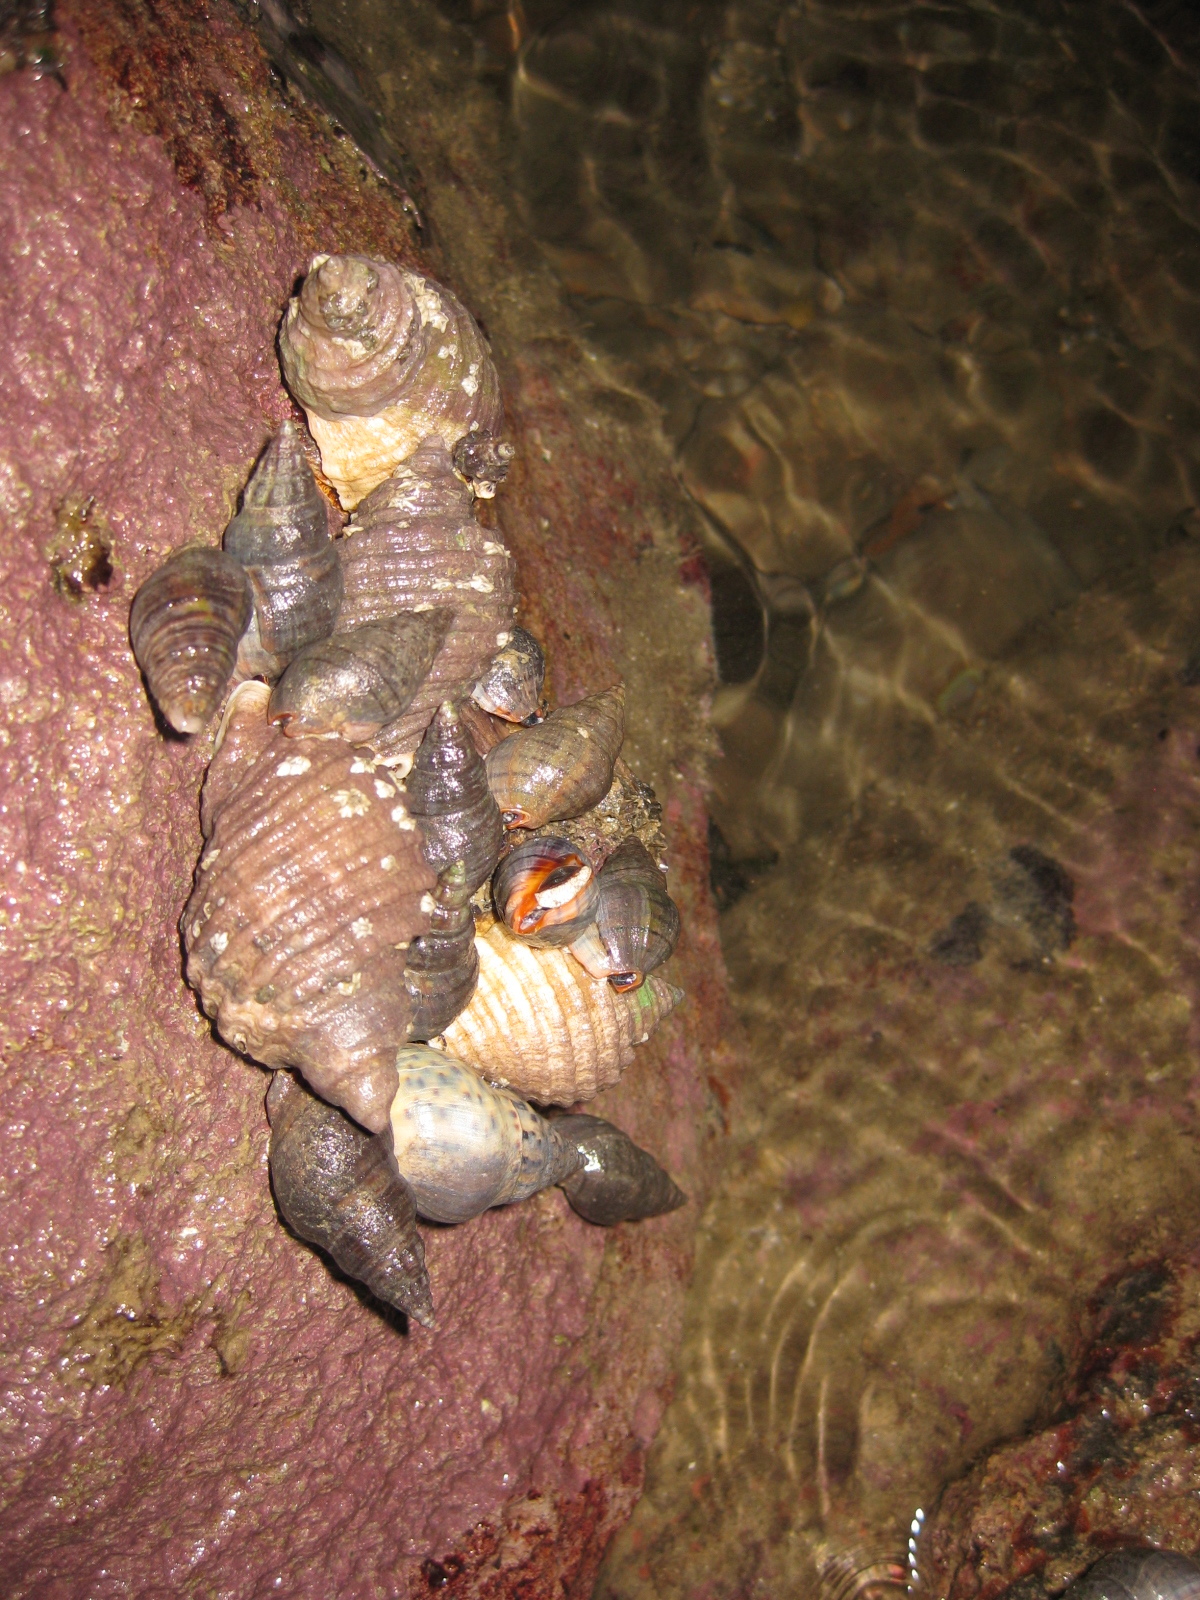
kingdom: Animalia
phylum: Mollusca
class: Gastropoda
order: Neogastropoda
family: Cominellidae
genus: Cominella
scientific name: Cominella virgata
